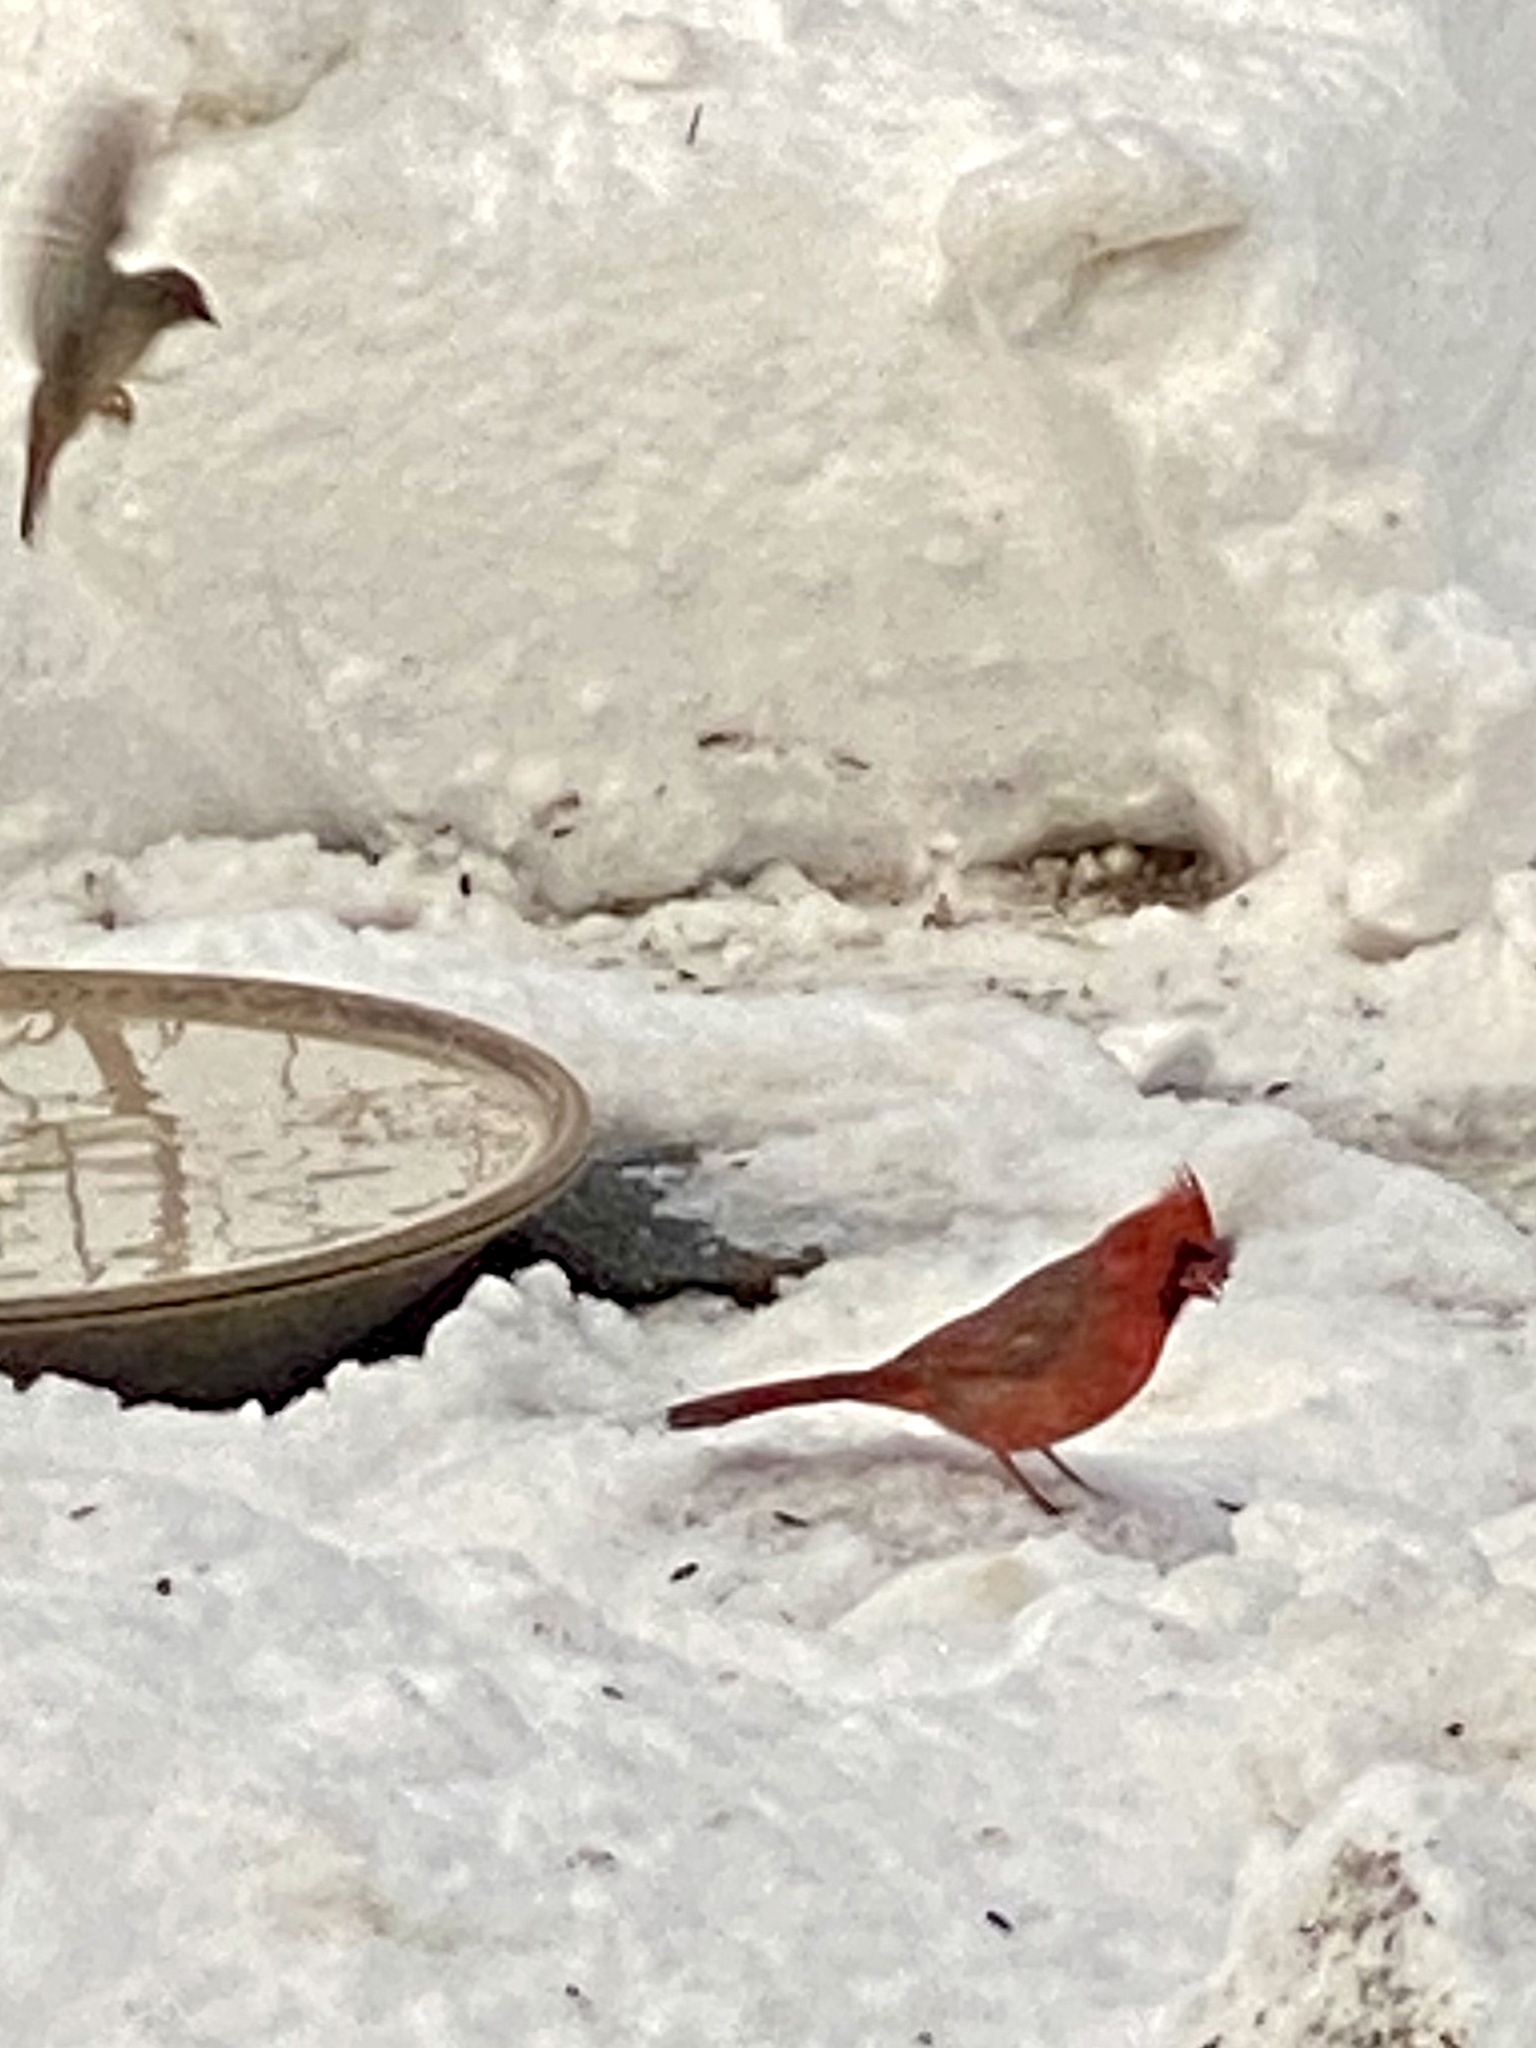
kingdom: Animalia
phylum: Chordata
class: Aves
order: Passeriformes
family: Cardinalidae
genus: Cardinalis
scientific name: Cardinalis cardinalis
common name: Northern cardinal
